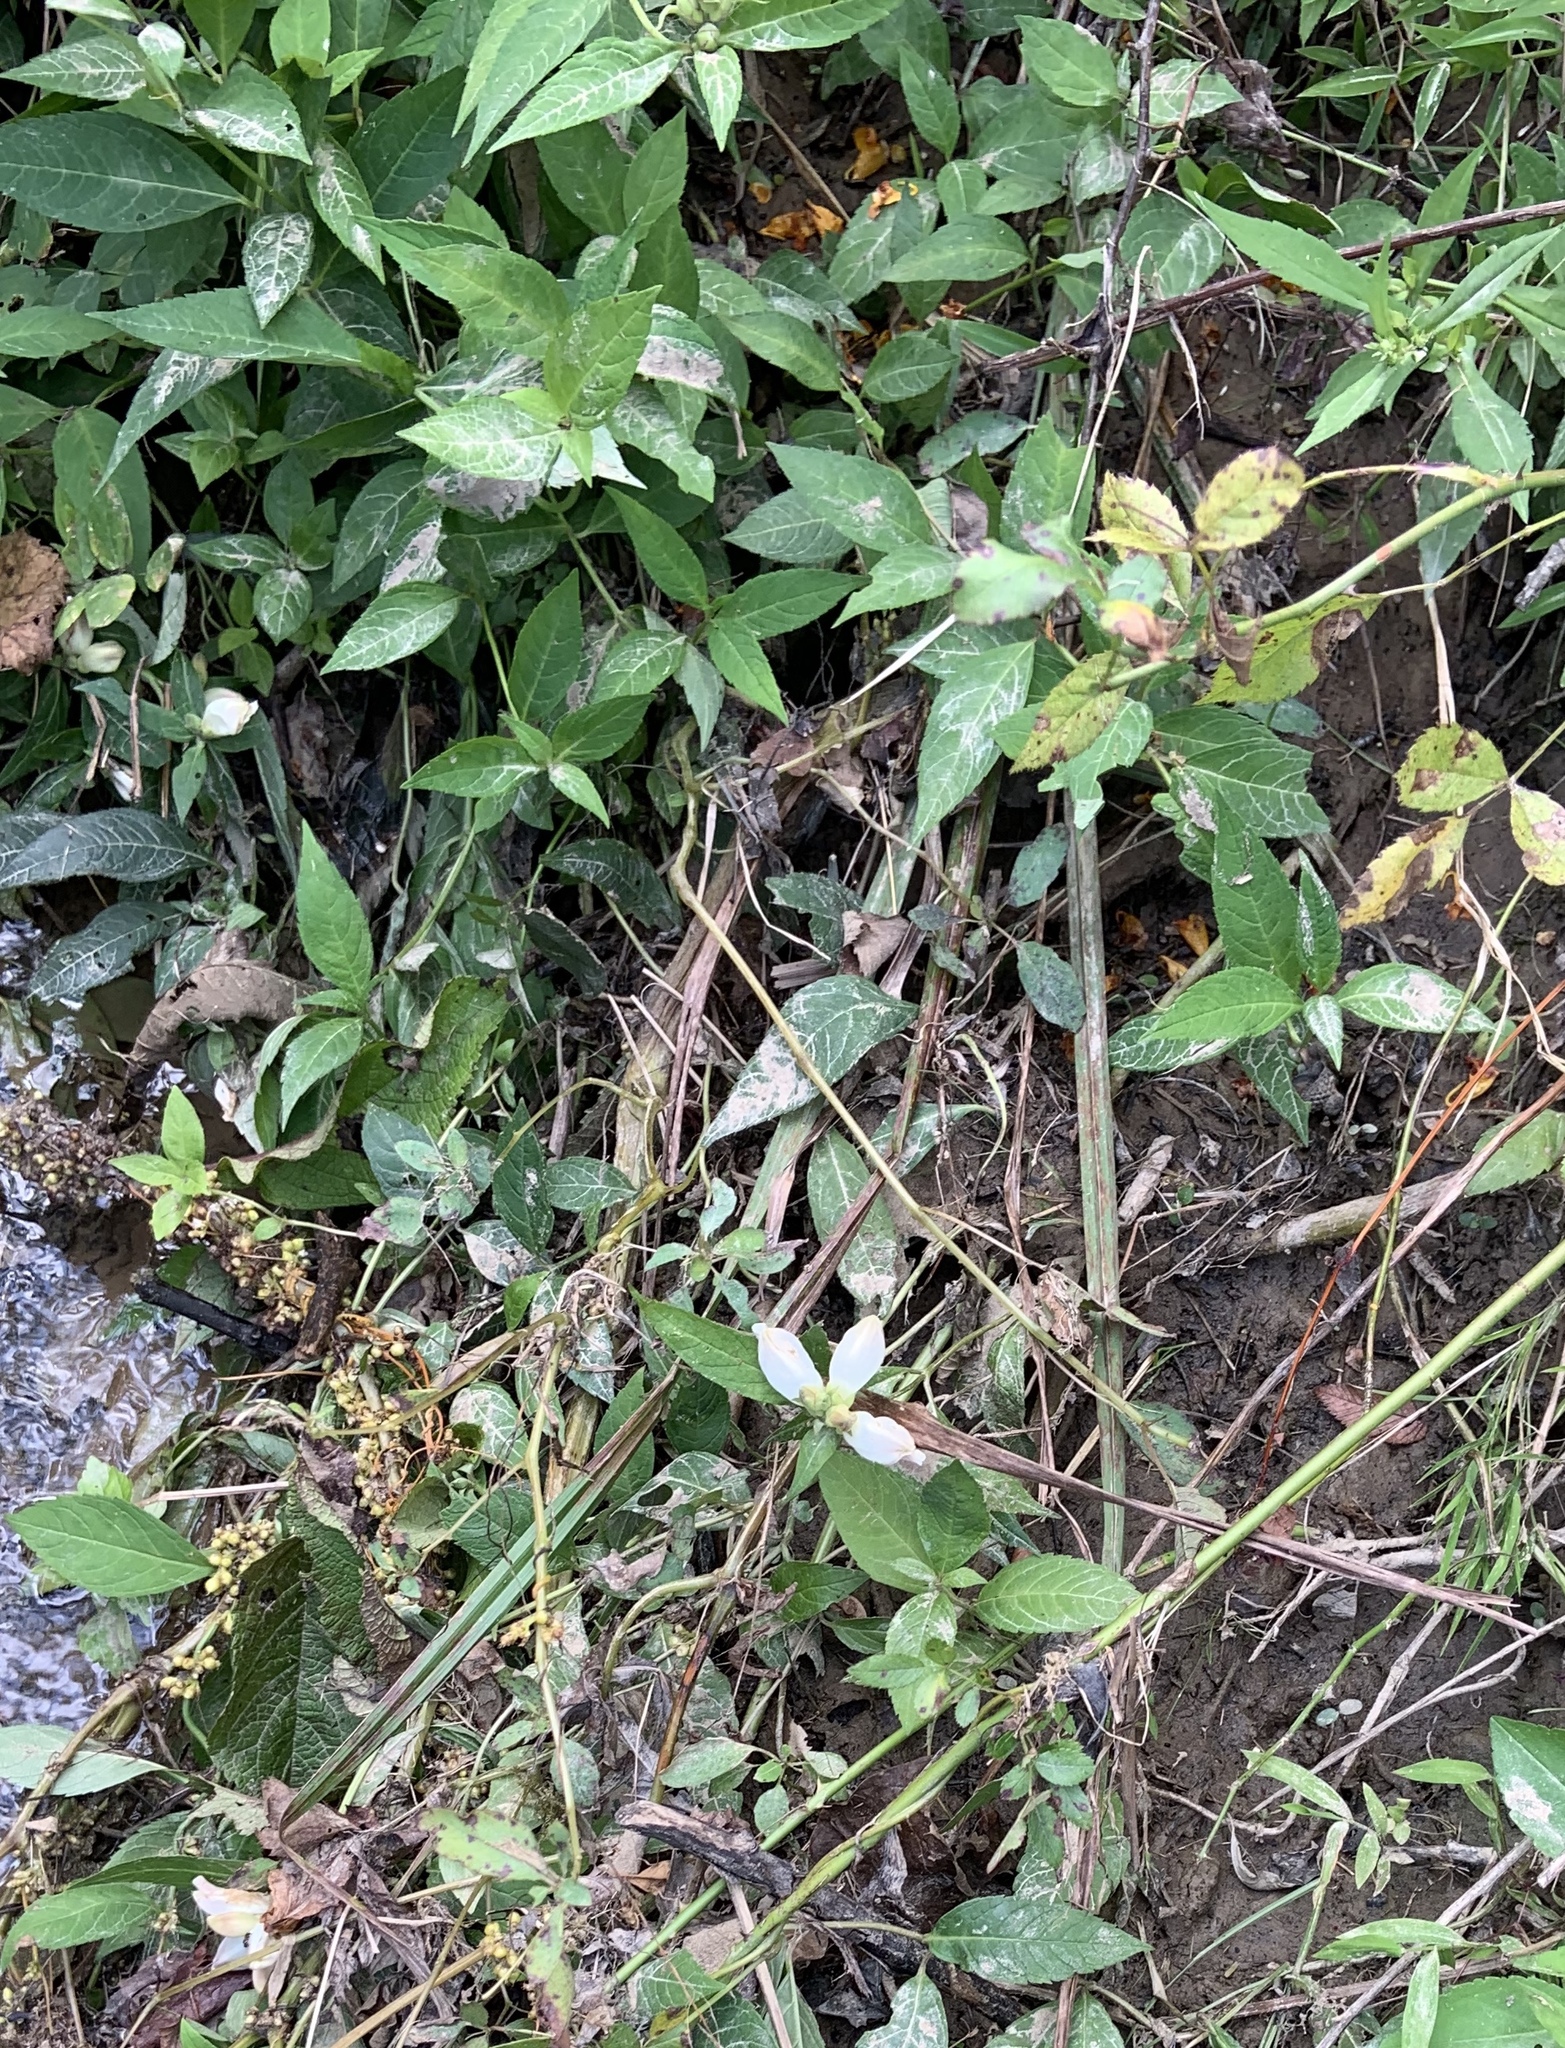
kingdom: Plantae
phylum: Tracheophyta
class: Magnoliopsida
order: Lamiales
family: Plantaginaceae
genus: Chelone
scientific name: Chelone glabra
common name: Snakehead
